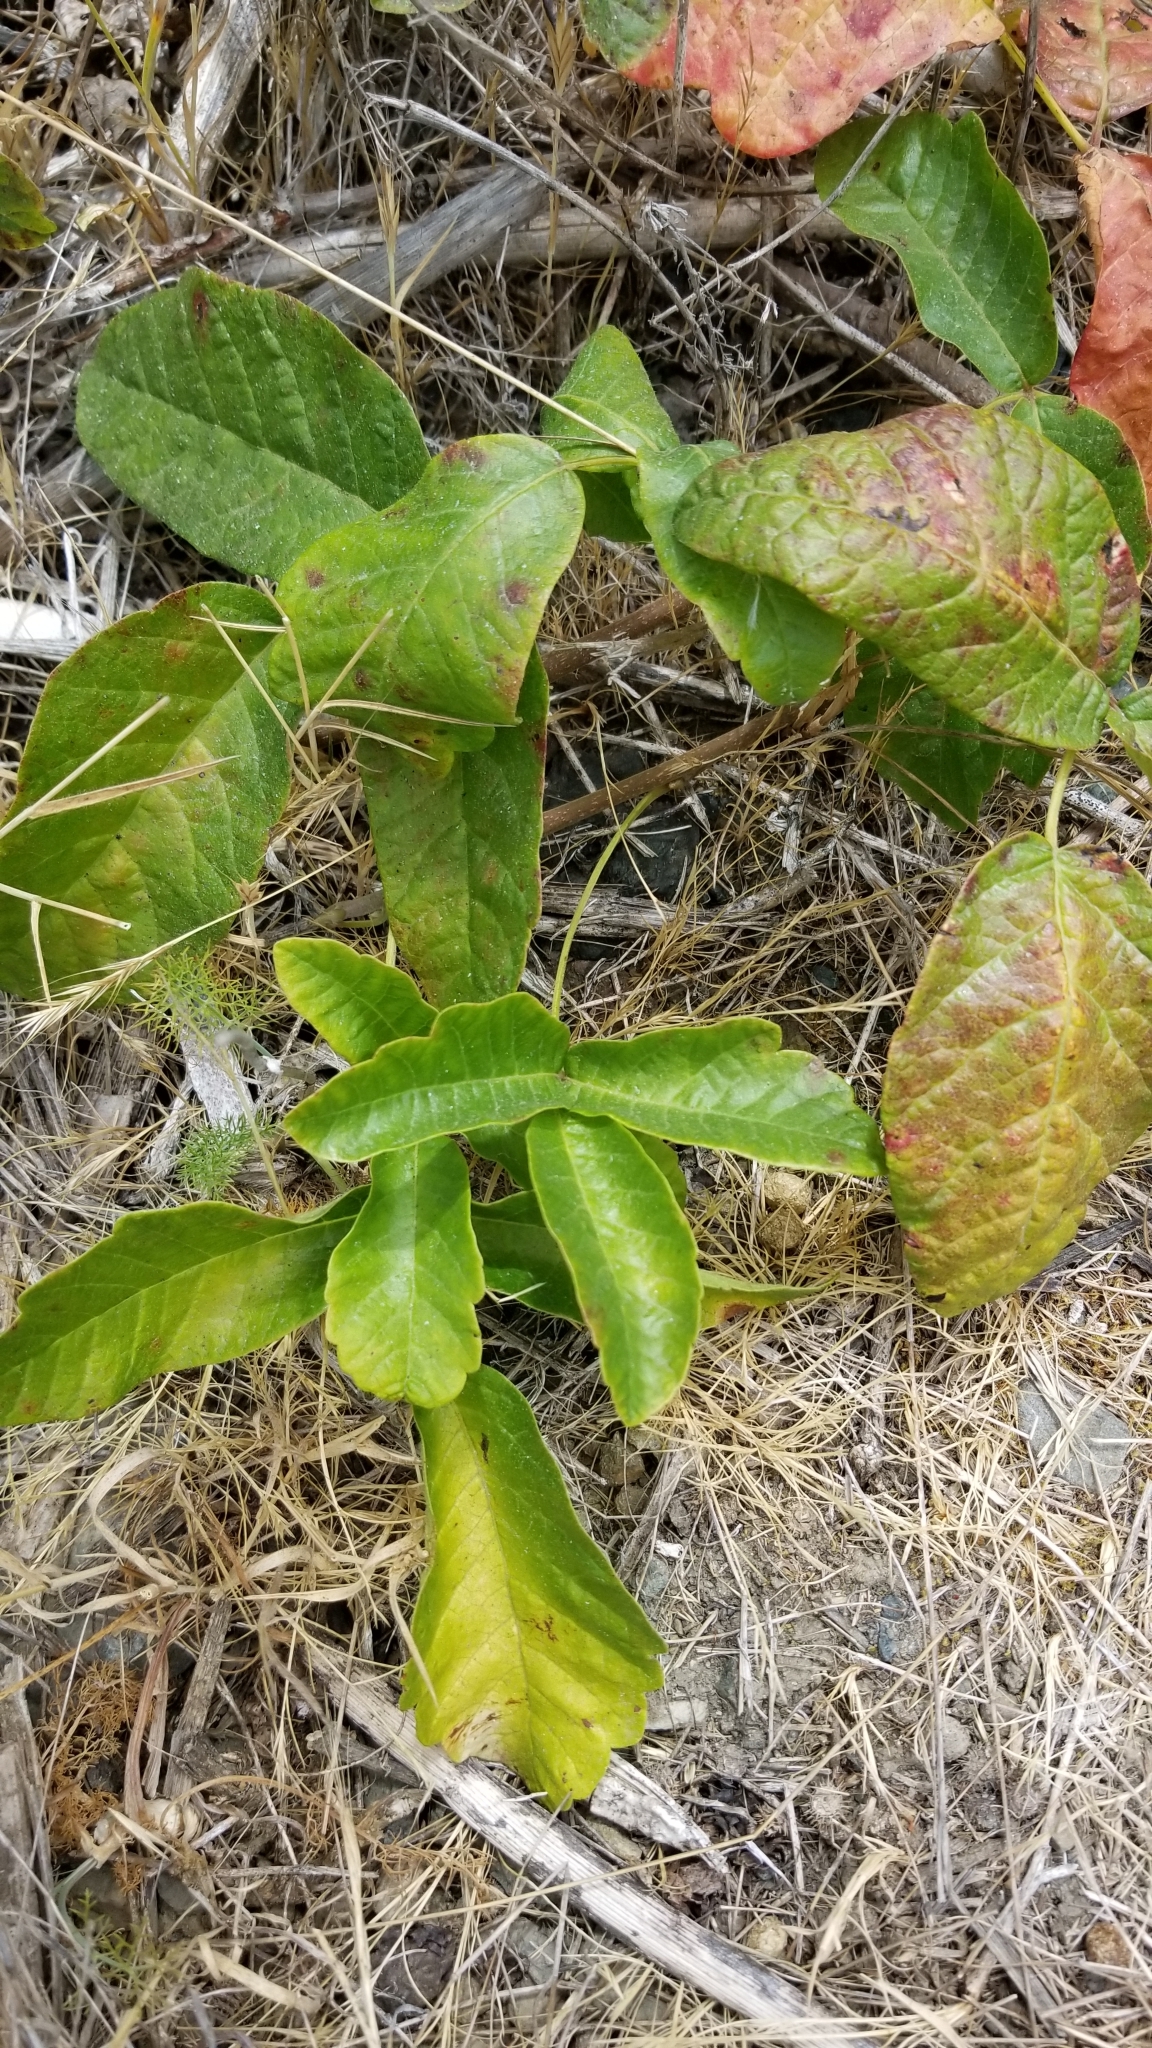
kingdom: Plantae
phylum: Tracheophyta
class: Magnoliopsida
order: Sapindales
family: Anacardiaceae
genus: Toxicodendron
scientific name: Toxicodendron diversilobum
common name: Pacific poison-oak
